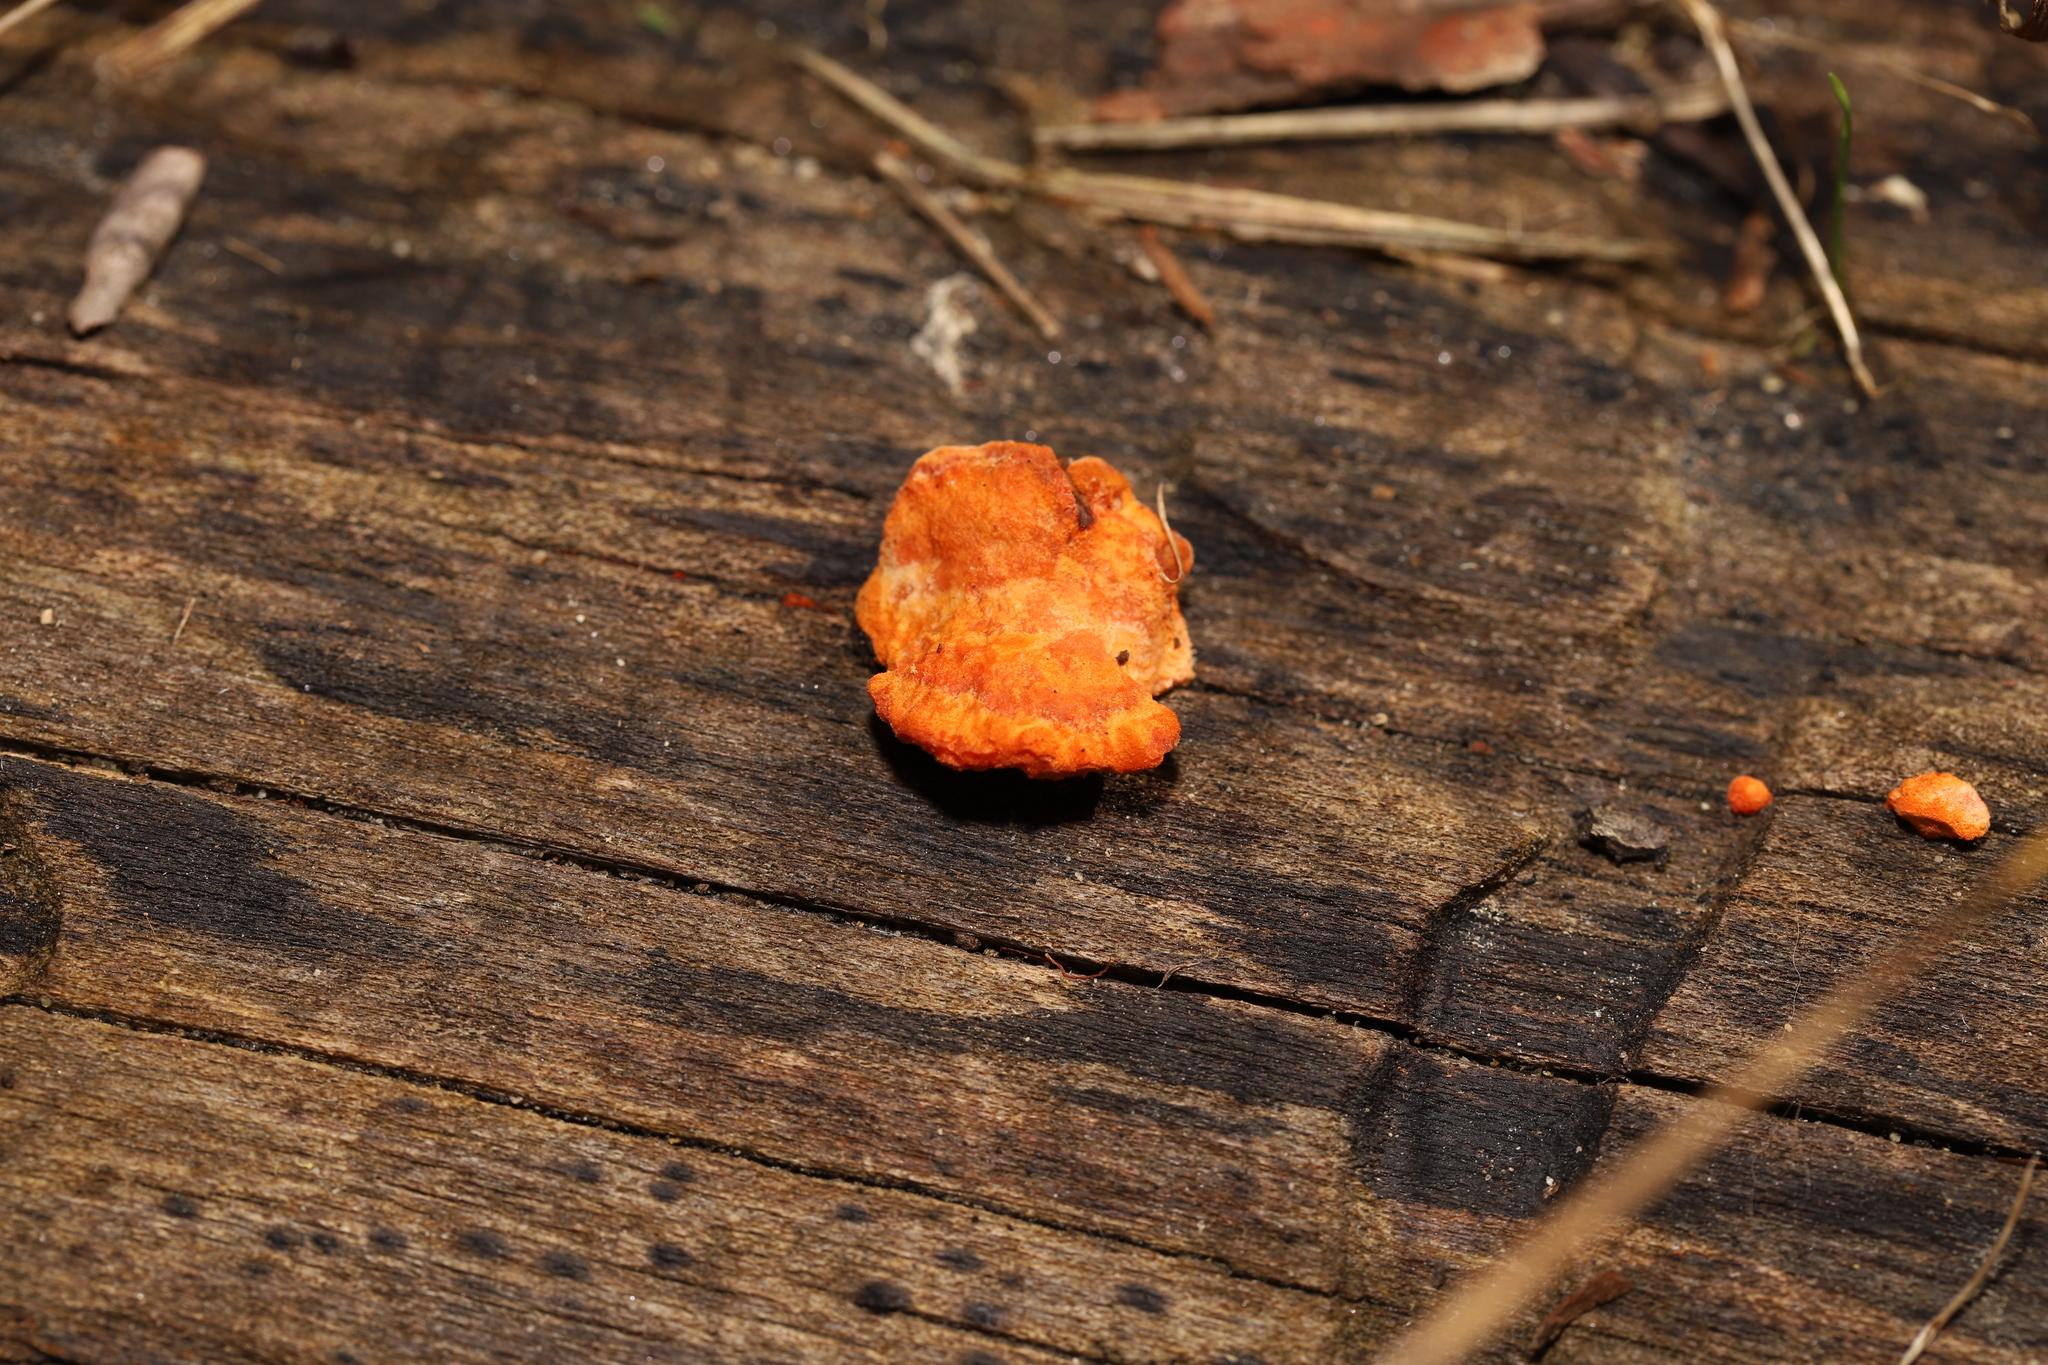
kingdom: Fungi
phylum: Basidiomycota
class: Agaricomycetes
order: Polyporales
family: Polyporaceae
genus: Trametes
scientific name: Trametes coccinea
